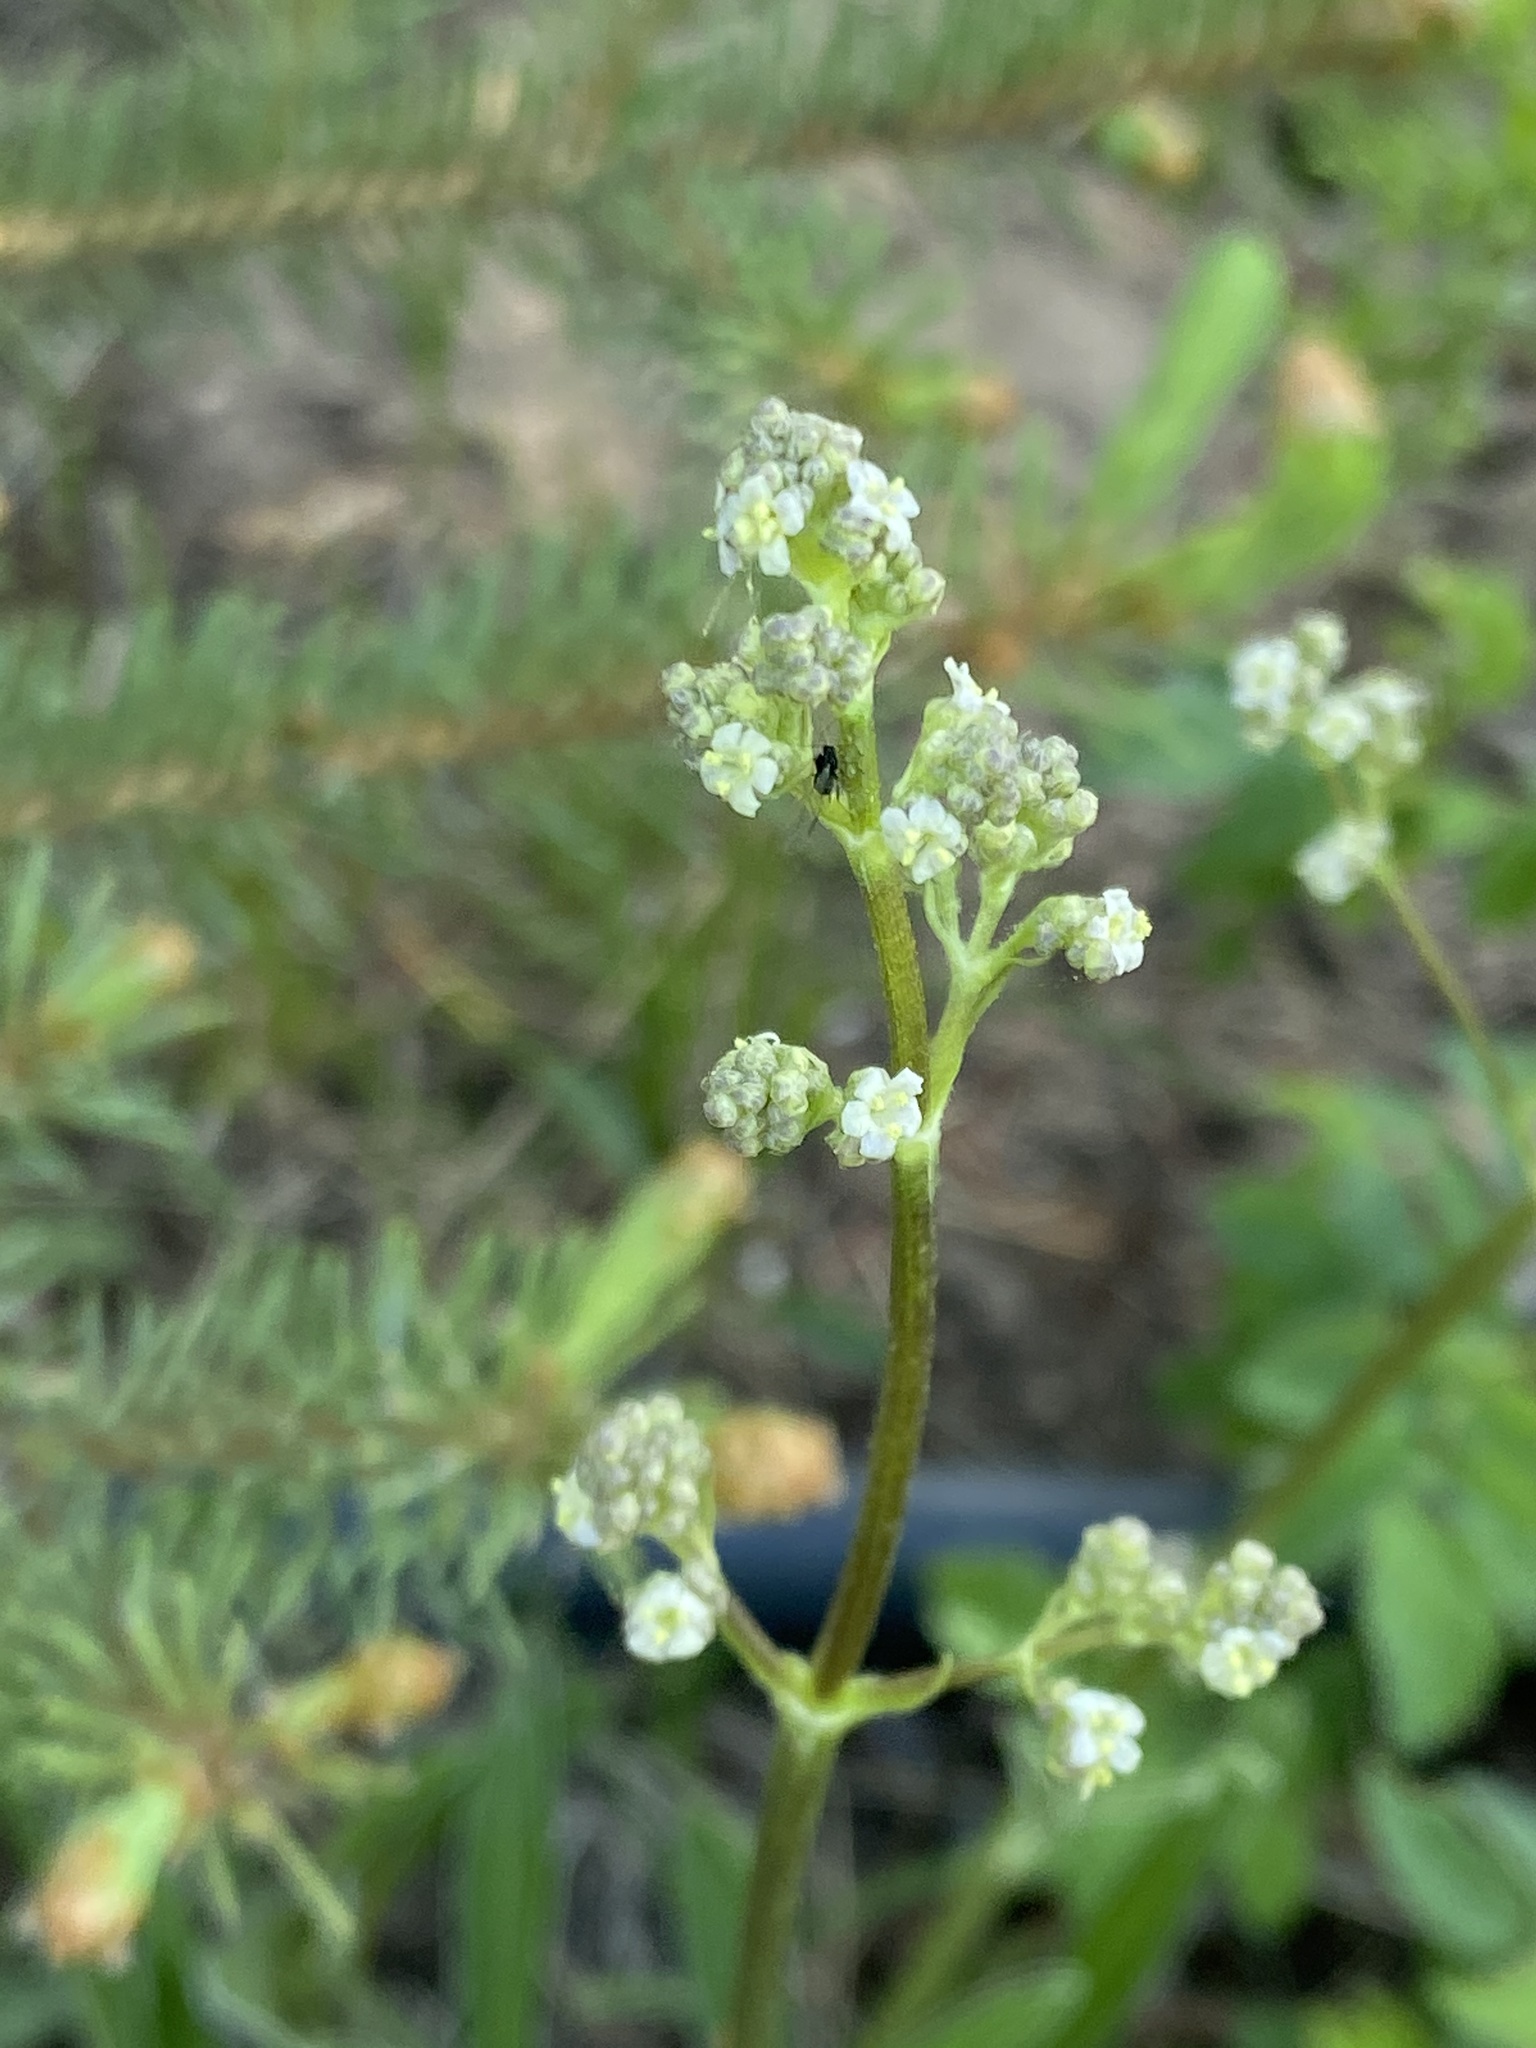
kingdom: Plantae
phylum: Tracheophyta
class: Magnoliopsida
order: Dipsacales
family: Caprifoliaceae
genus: Valeriana
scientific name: Valeriana edulis
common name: Taproot valerian
